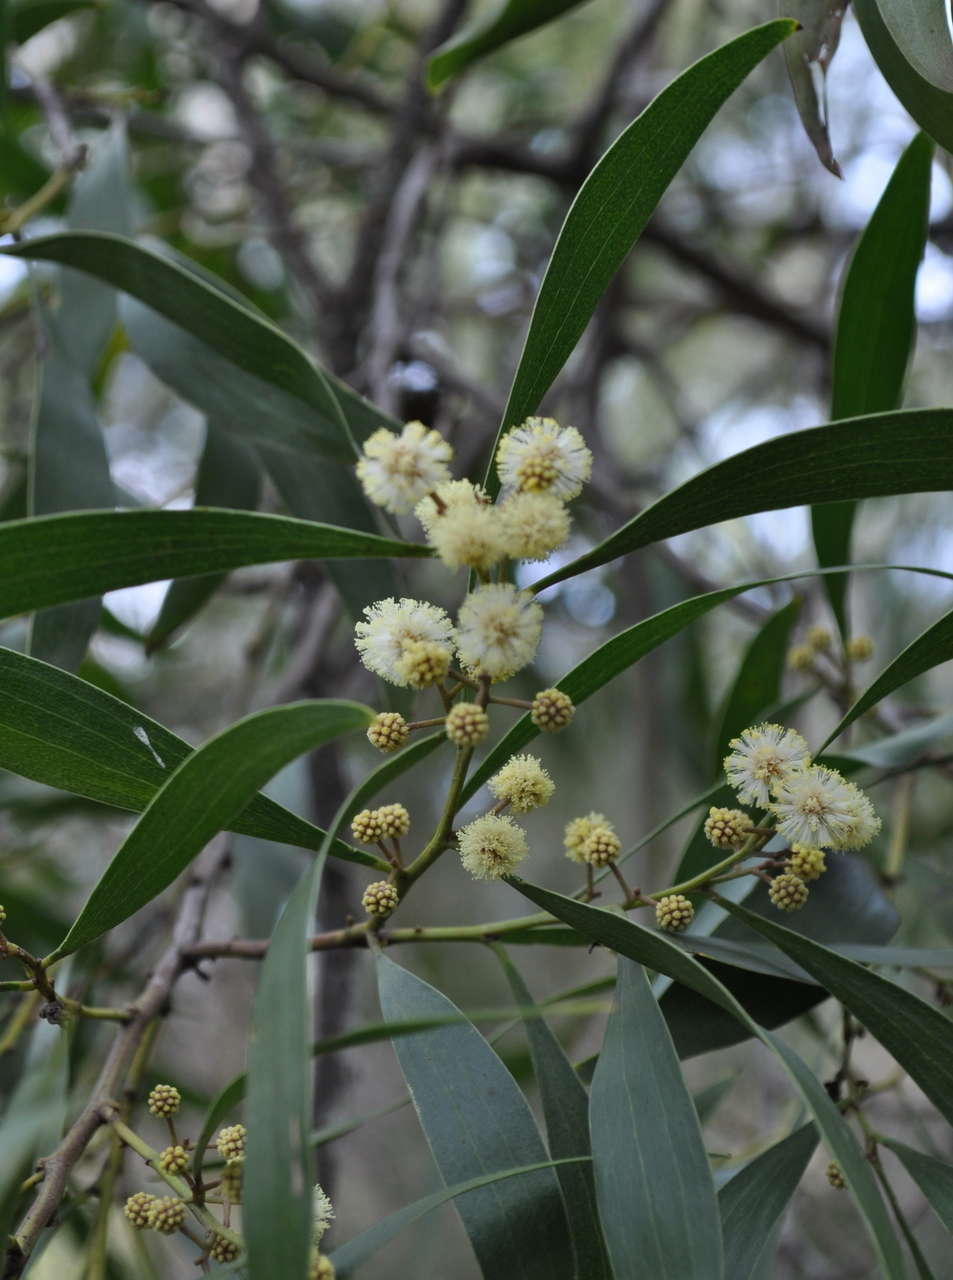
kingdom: Plantae
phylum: Tracheophyta
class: Magnoliopsida
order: Fabales
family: Fabaceae
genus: Acacia
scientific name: Acacia melanoxylon
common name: Blackwood
